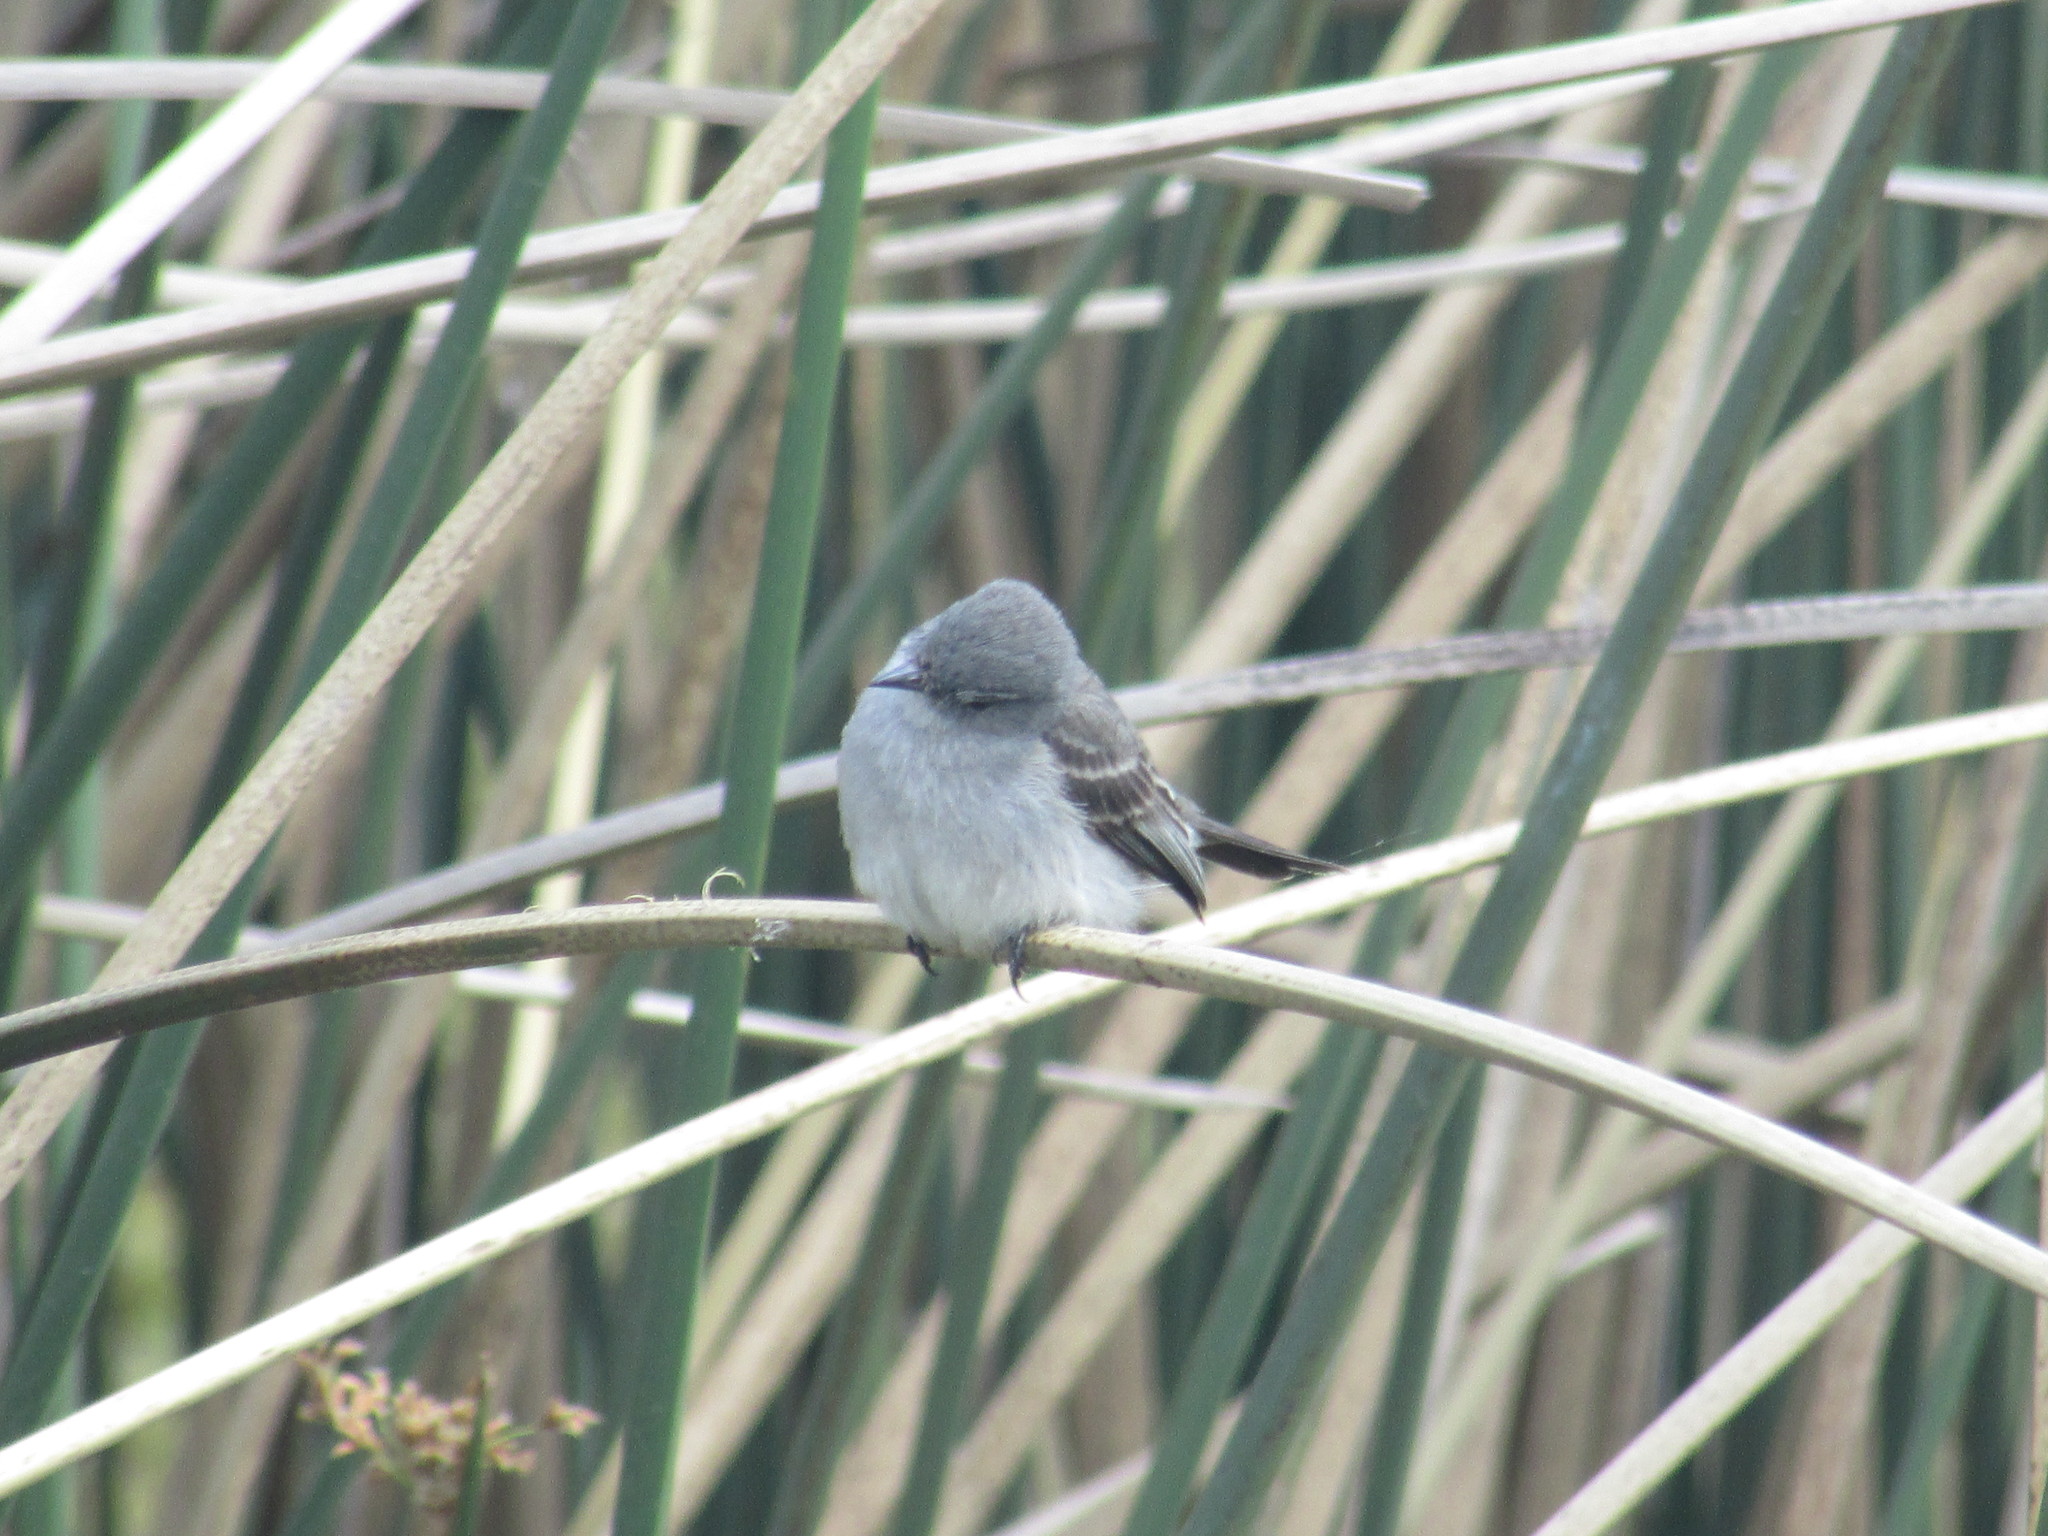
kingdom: Animalia
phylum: Chordata
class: Aves
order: Passeriformes
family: Tyrannidae
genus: Serpophaga
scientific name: Serpophaga nigricans
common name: Sooty tyrannulet
